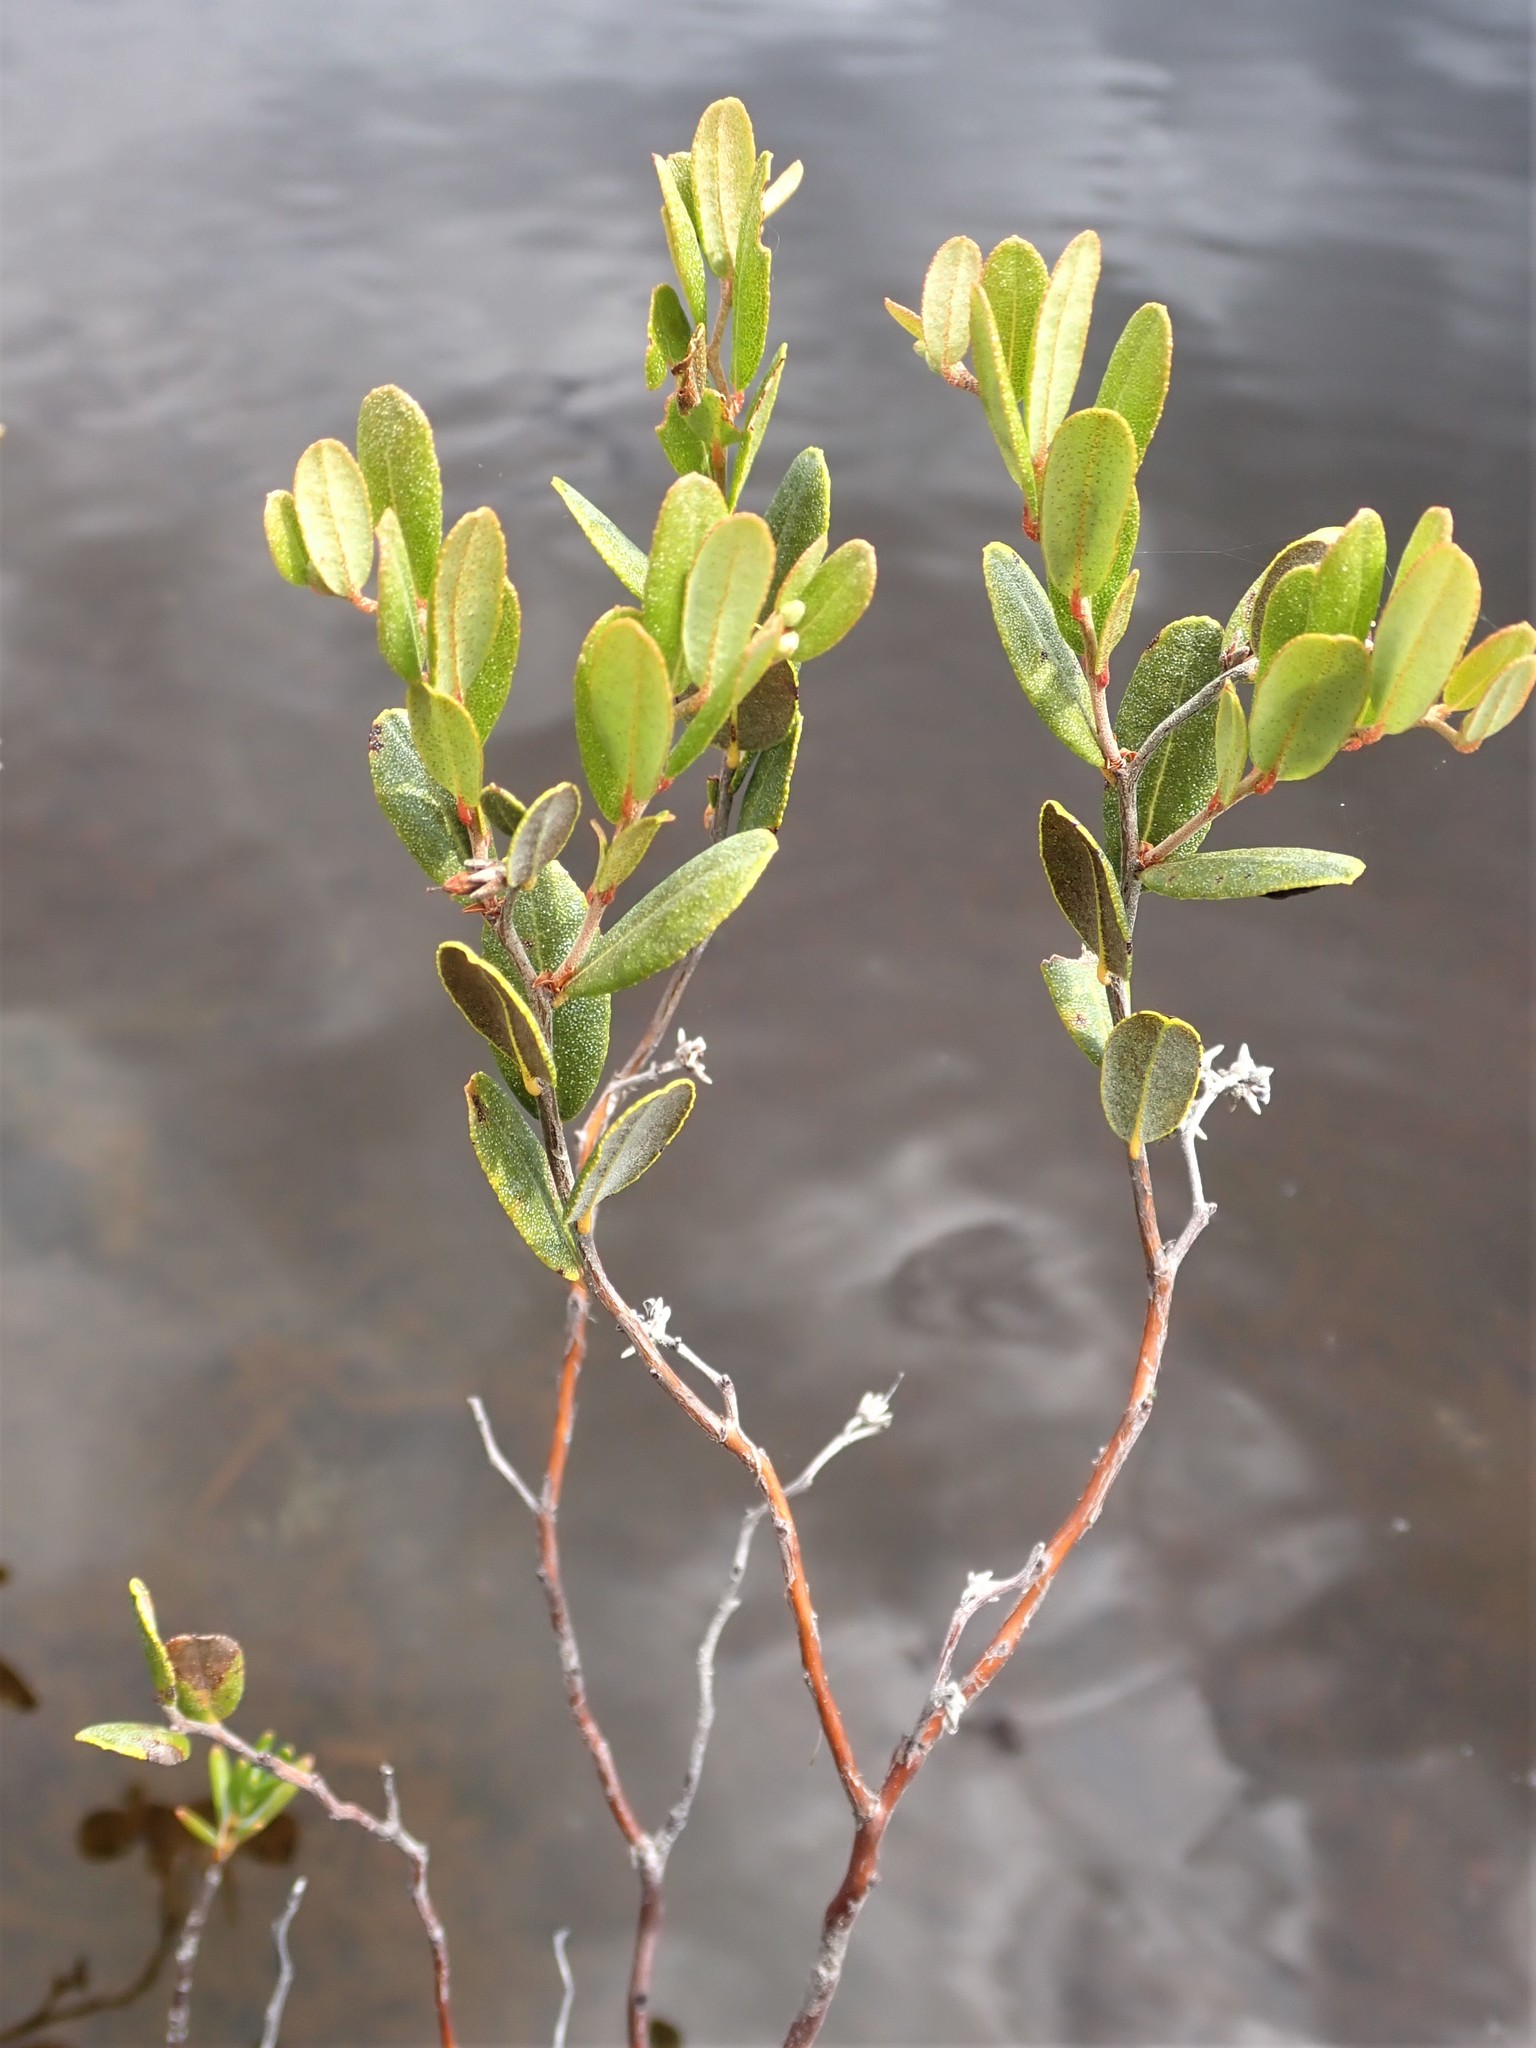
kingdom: Plantae
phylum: Tracheophyta
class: Magnoliopsida
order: Ericales
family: Ericaceae
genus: Chamaedaphne
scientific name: Chamaedaphne calyculata
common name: Leatherleaf
